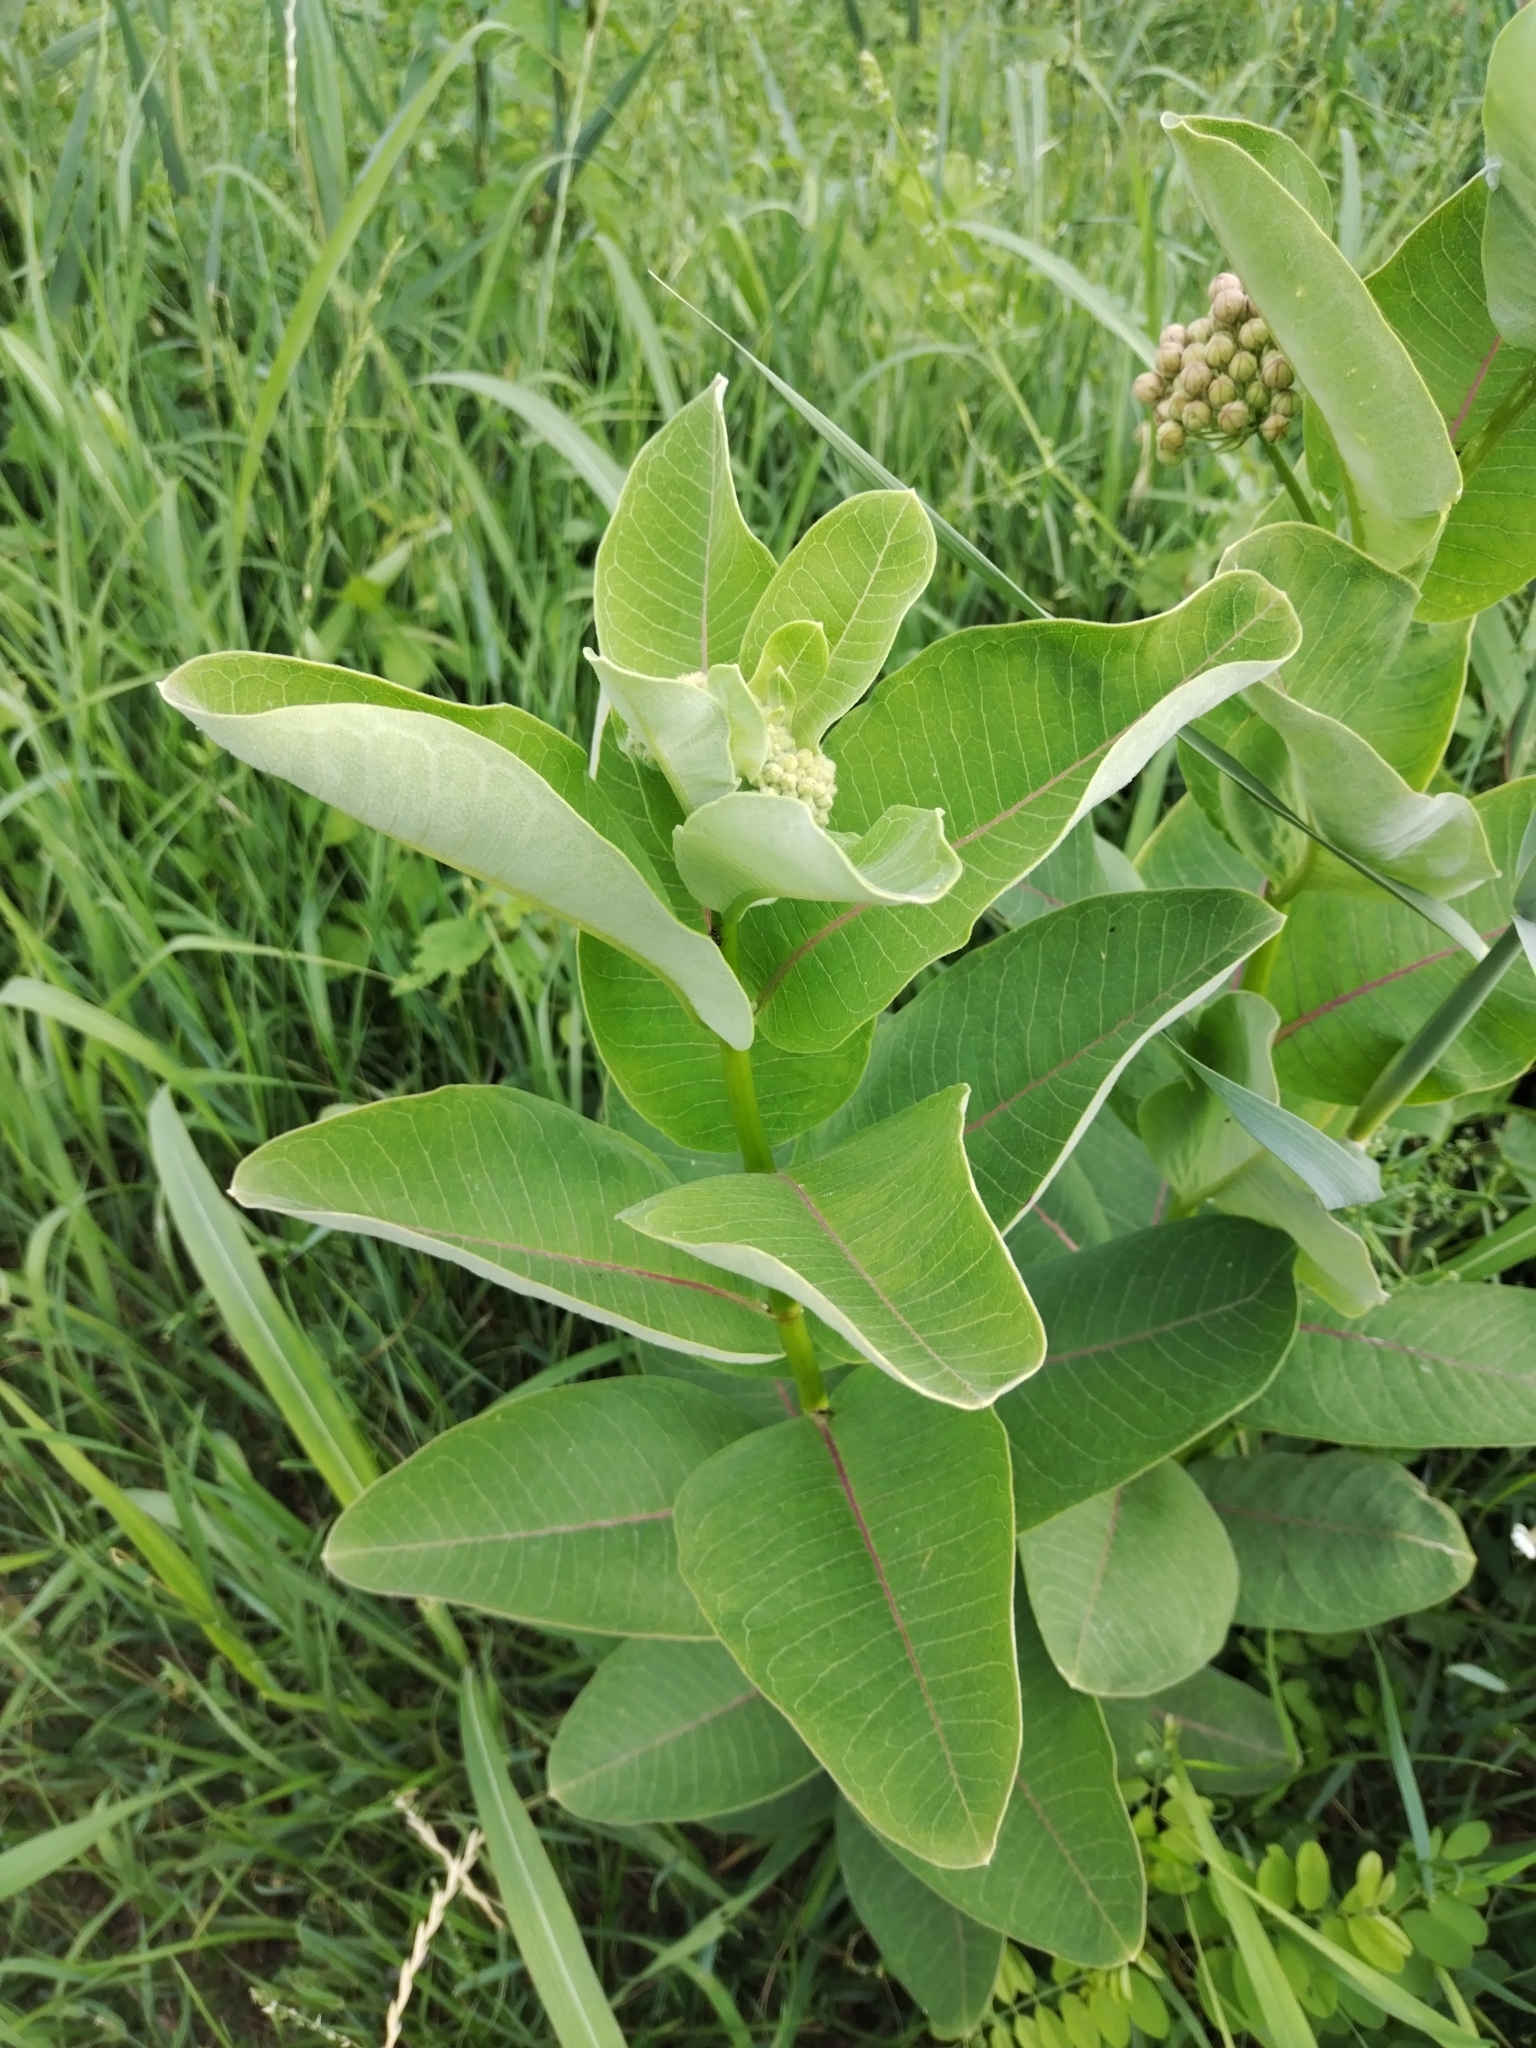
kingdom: Plantae
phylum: Tracheophyta
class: Magnoliopsida
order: Gentianales
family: Apocynaceae
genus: Asclepias
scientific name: Asclepias syriaca
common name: Common milkweed
